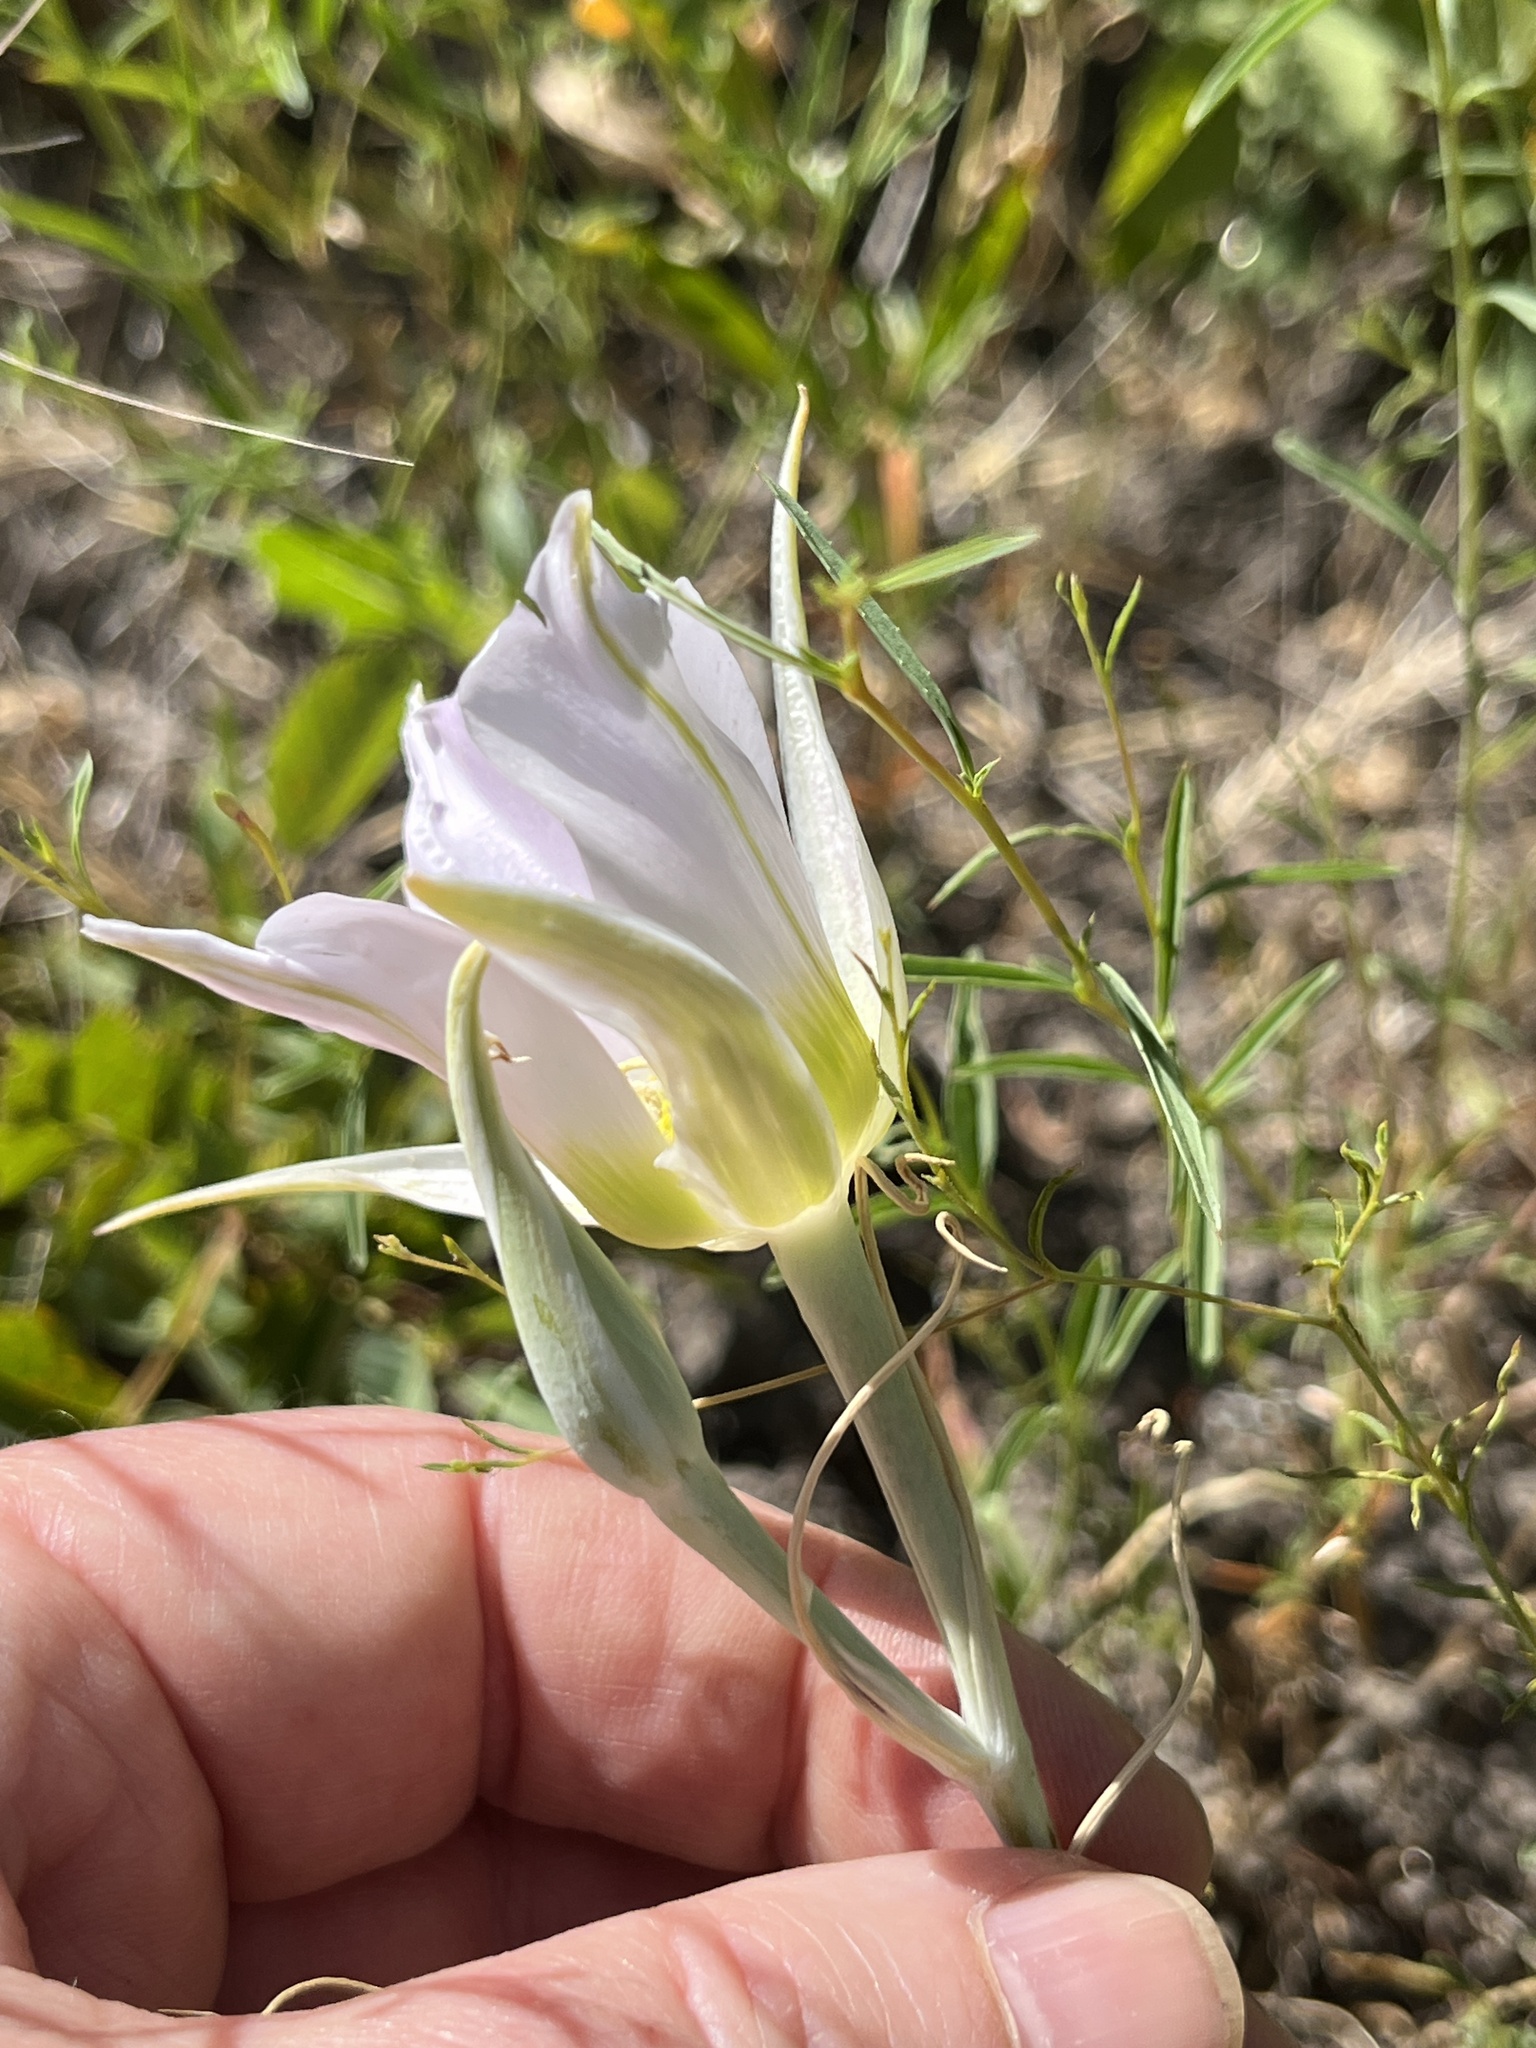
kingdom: Plantae
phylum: Tracheophyta
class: Liliopsida
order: Liliales
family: Liliaceae
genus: Calochortus
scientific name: Calochortus macrocarpus
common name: Green-band mariposa lily
